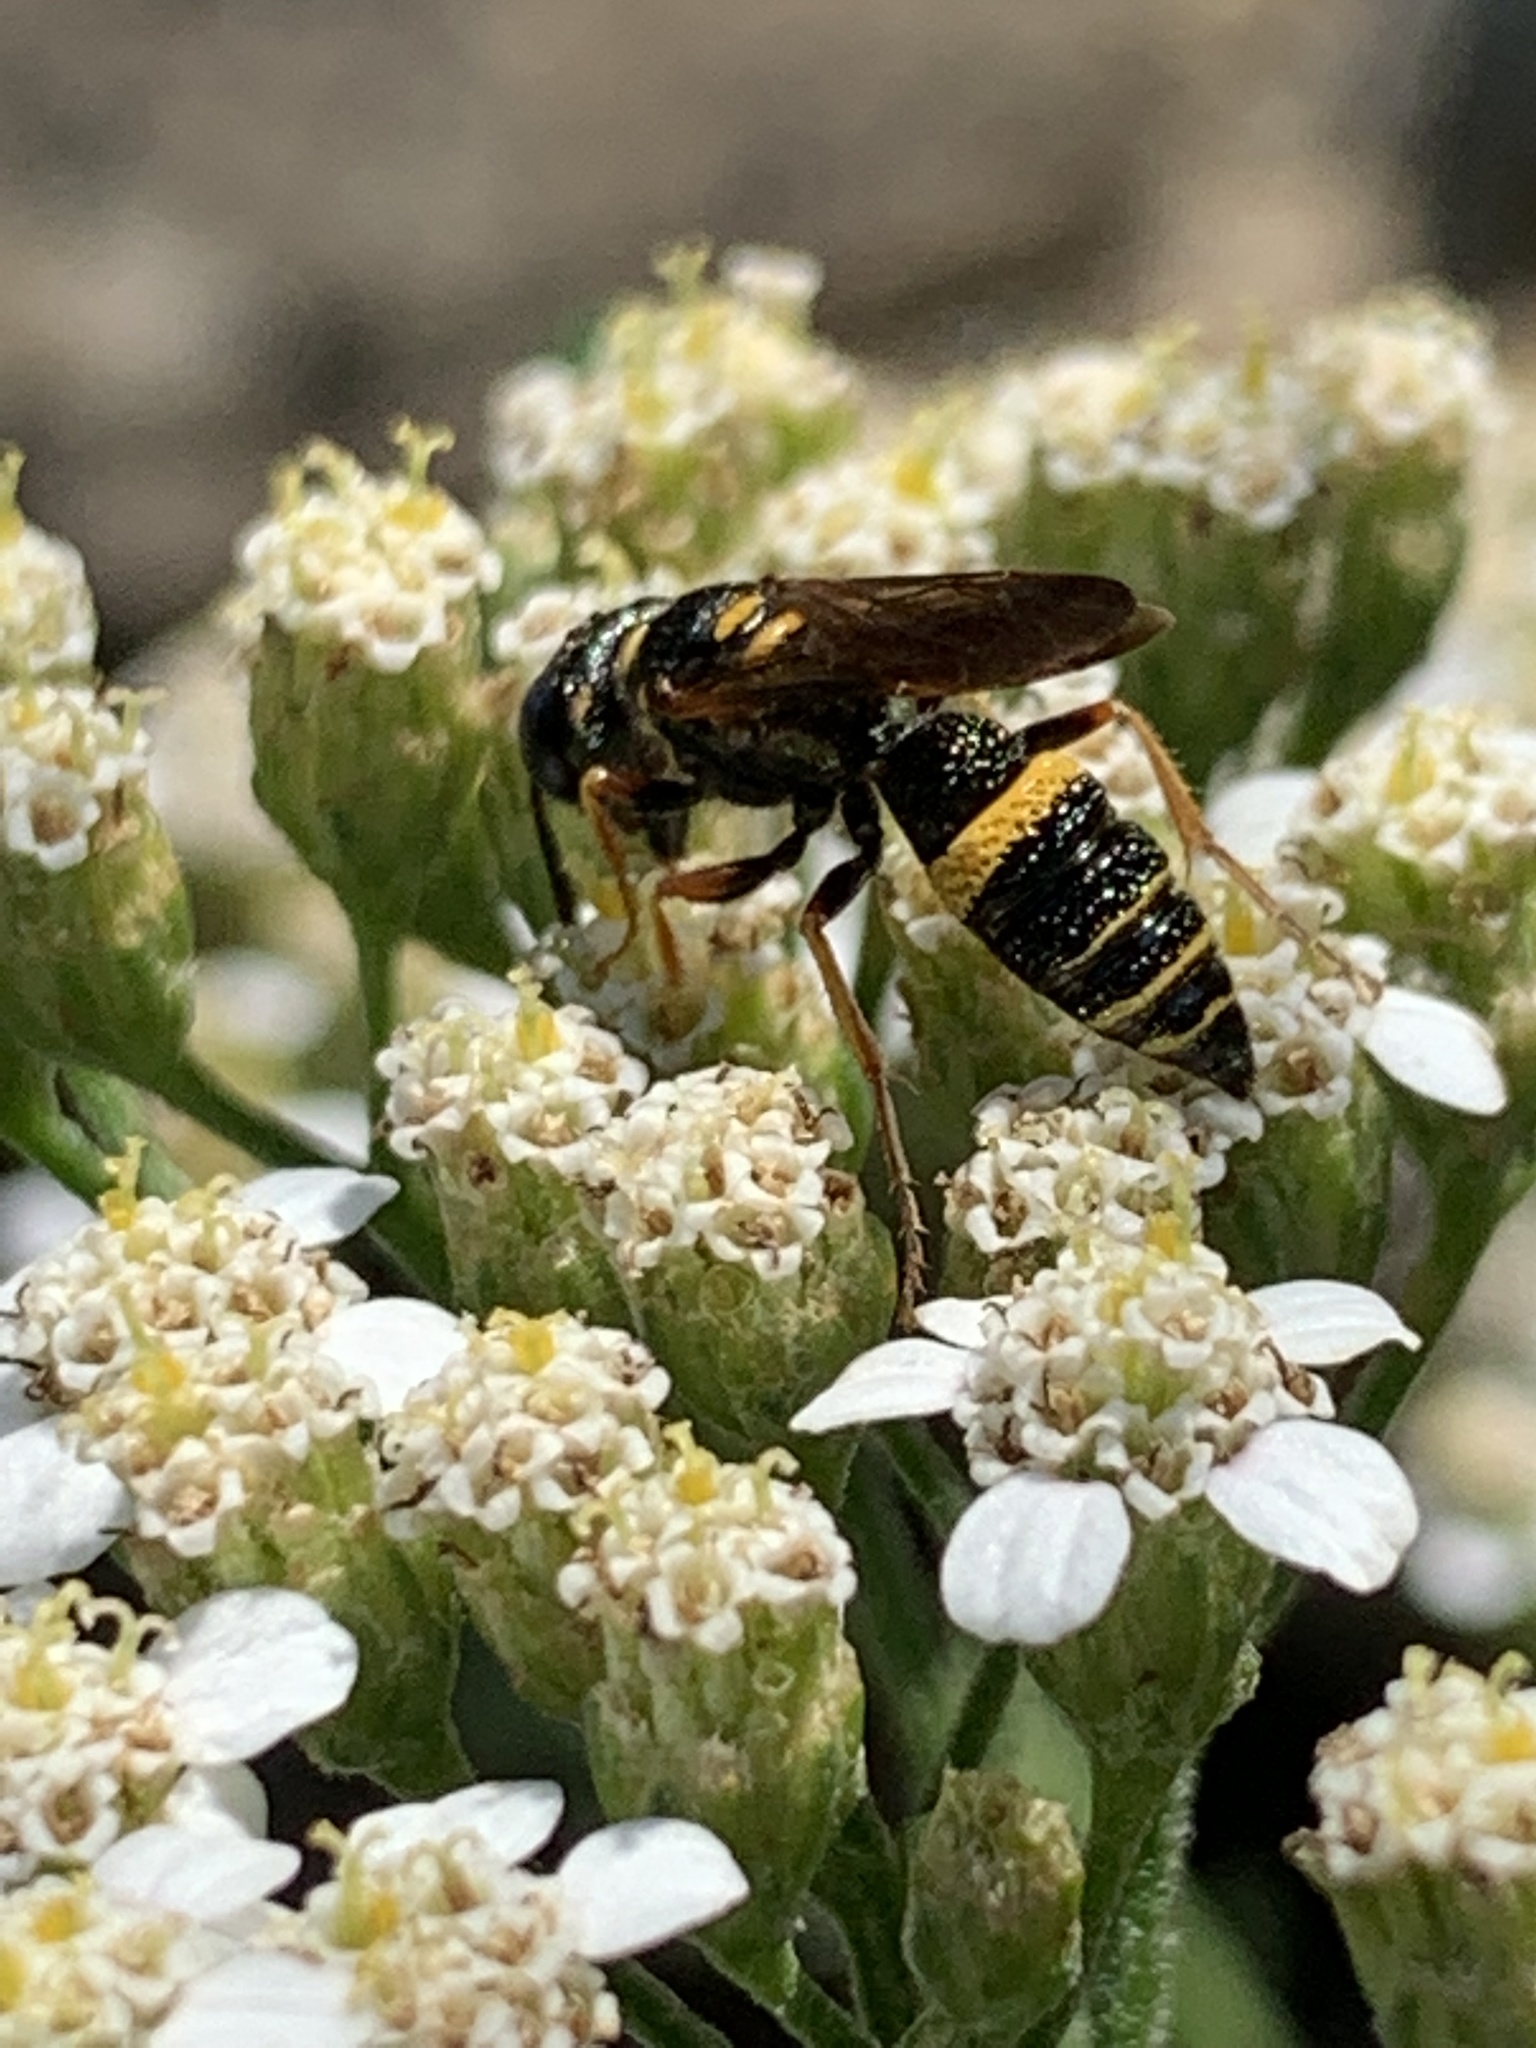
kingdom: Animalia
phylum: Arthropoda
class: Insecta
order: Hymenoptera
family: Crabronidae
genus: Philanthus
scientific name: Philanthus gibbosus
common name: Humped beewolf
